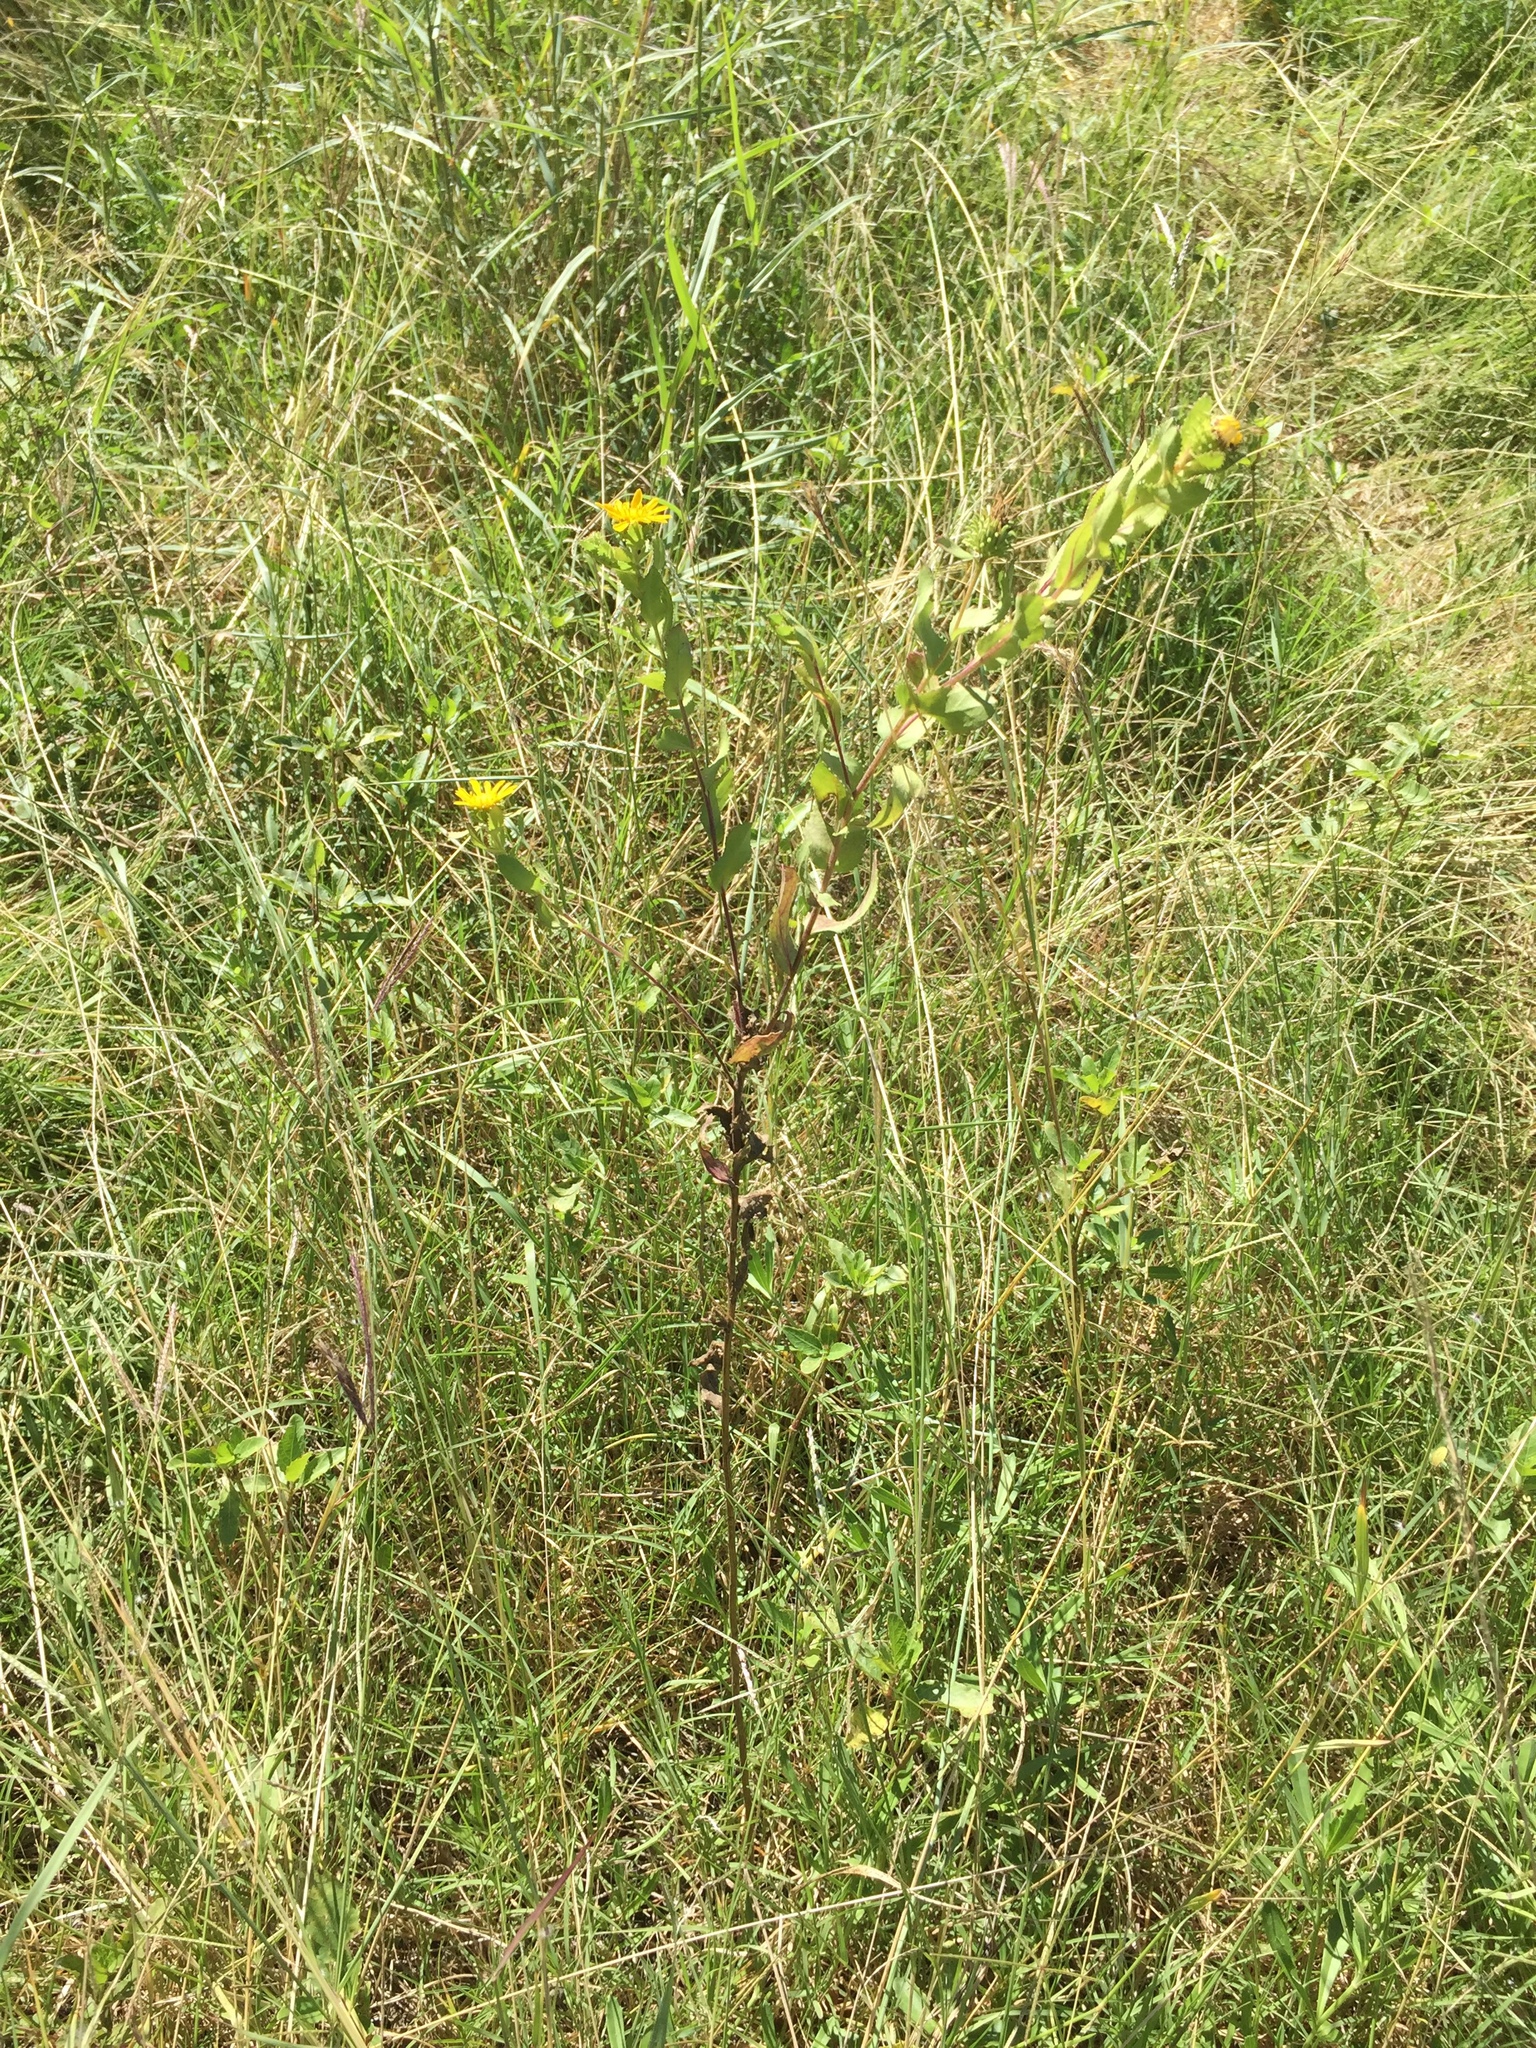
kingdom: Plantae
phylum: Tracheophyta
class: Magnoliopsida
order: Asterales
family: Asteraceae
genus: Grindelia
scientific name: Grindelia adenodonta
